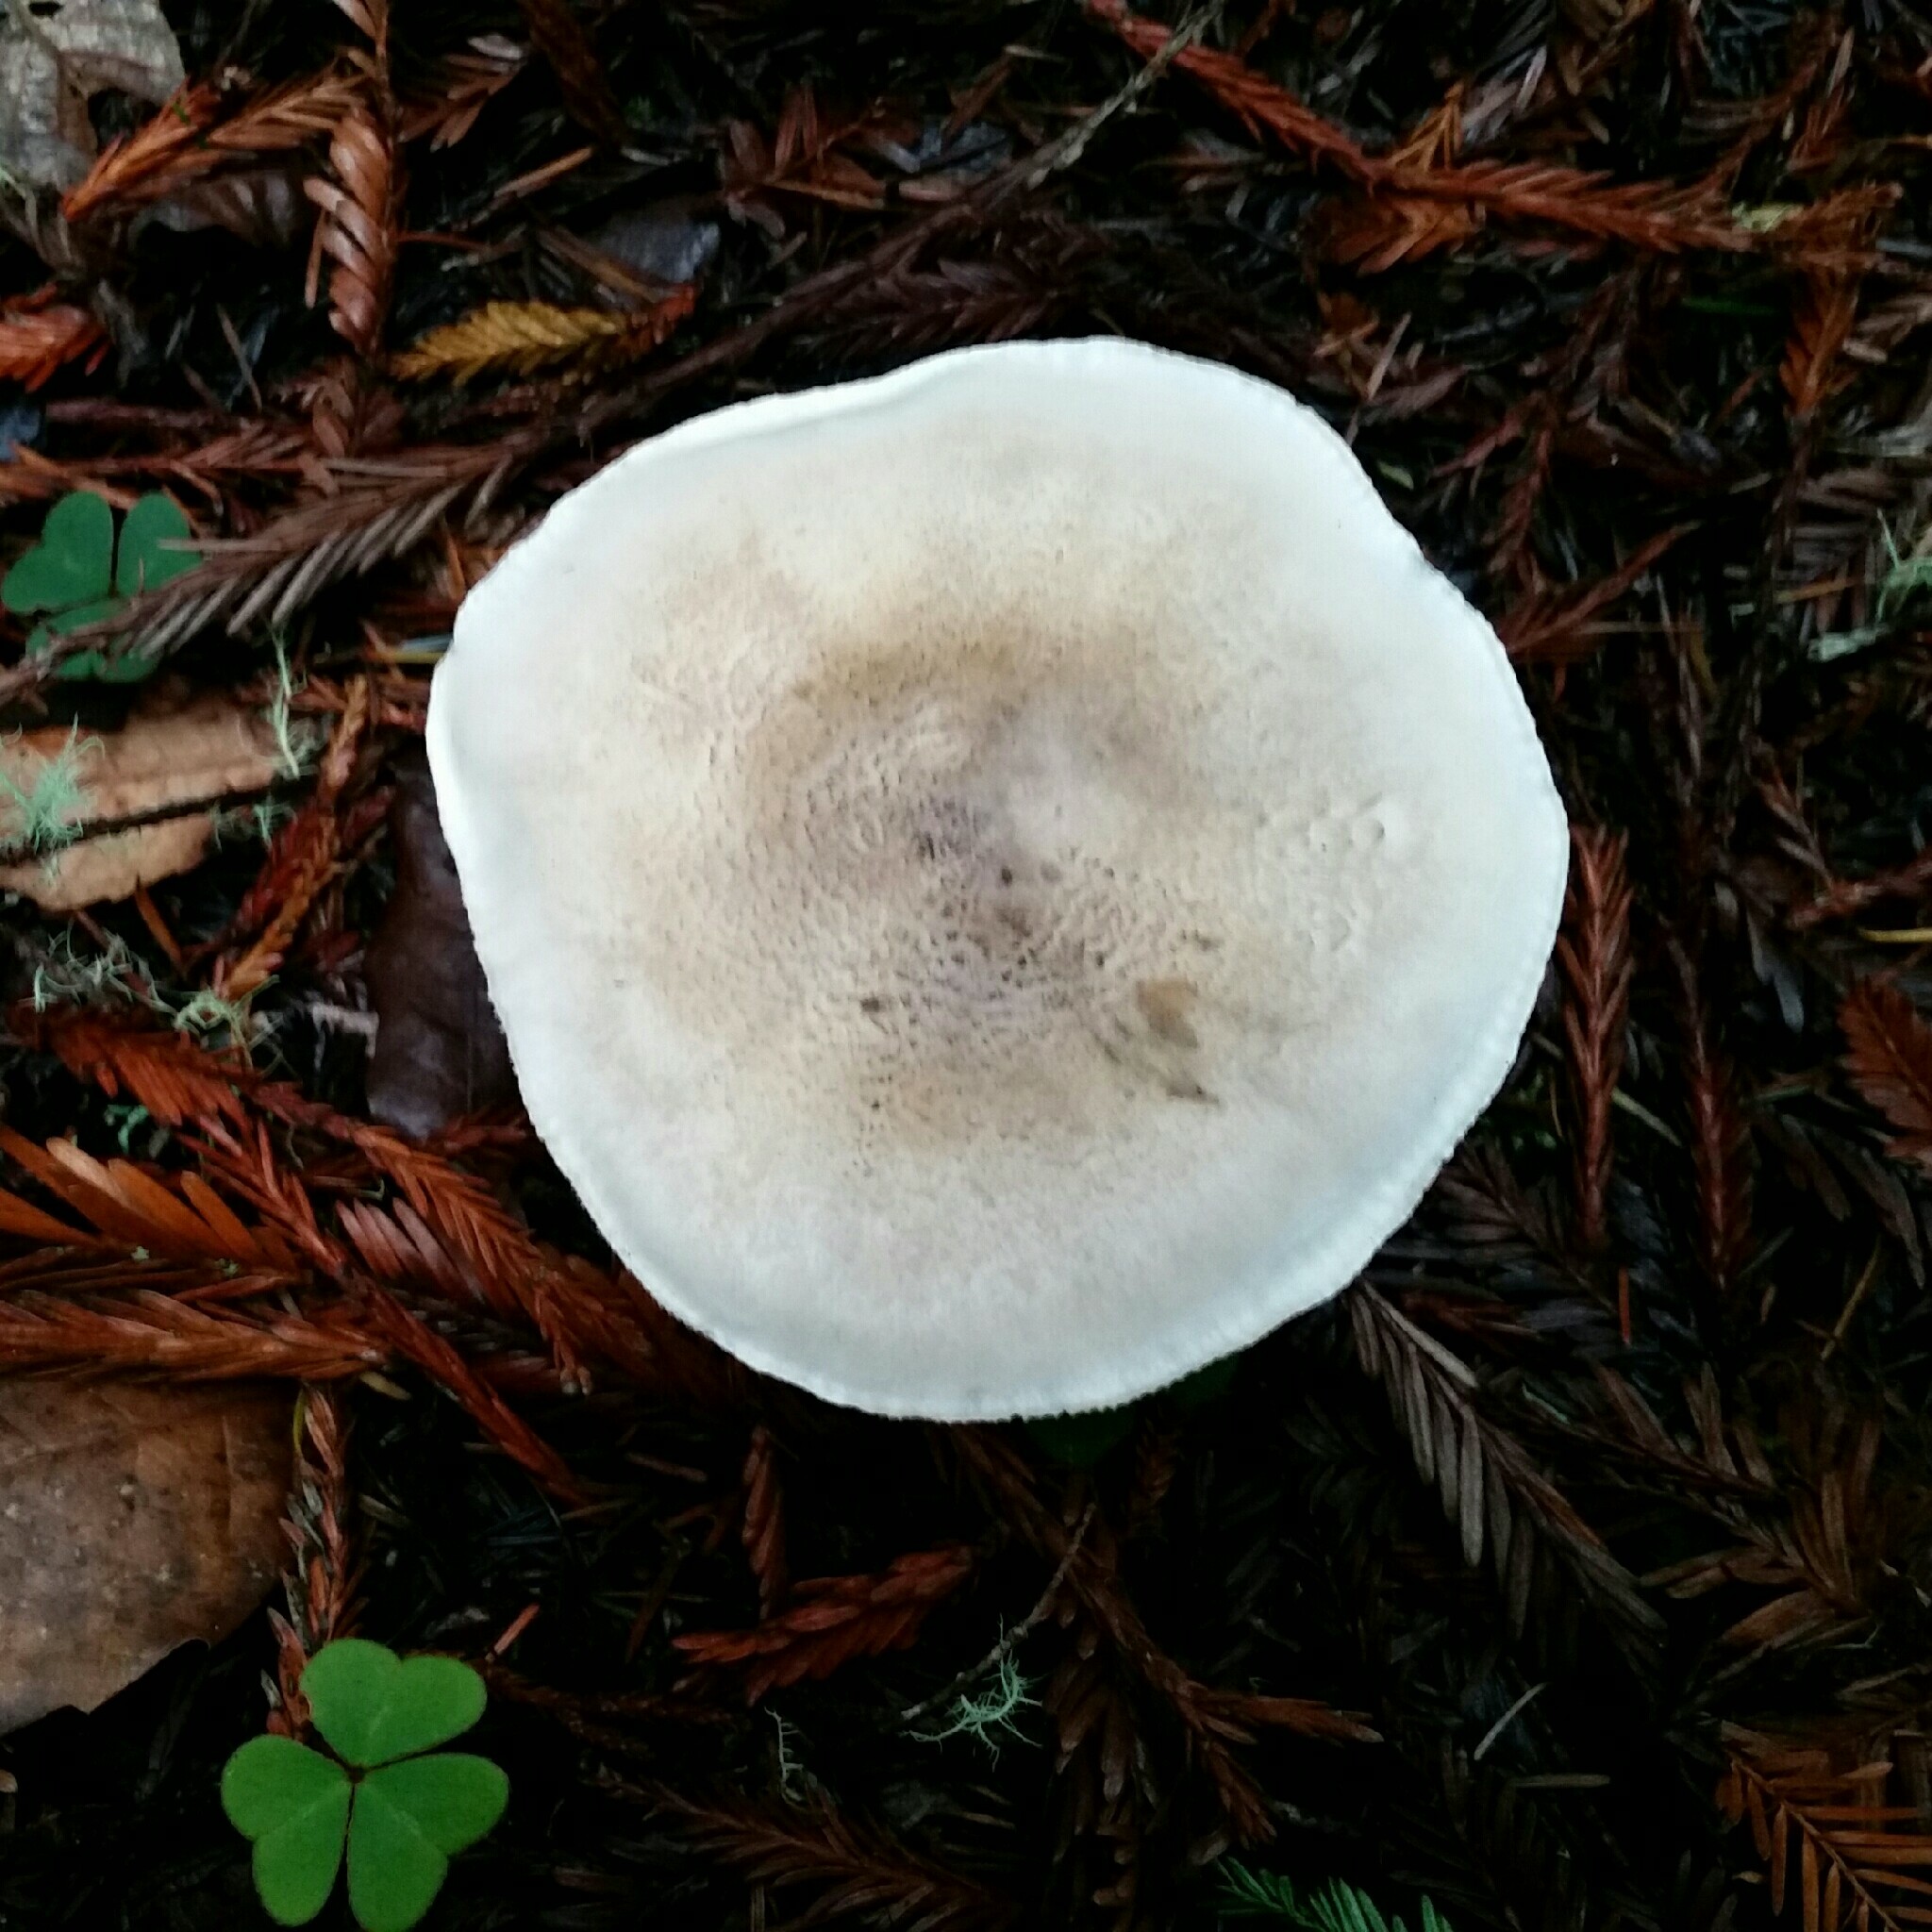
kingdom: Fungi
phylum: Basidiomycota
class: Agaricomycetes
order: Agaricales
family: Tricholomataceae
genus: Tricholoma
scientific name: Tricholoma pardinum
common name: Leopard knight
